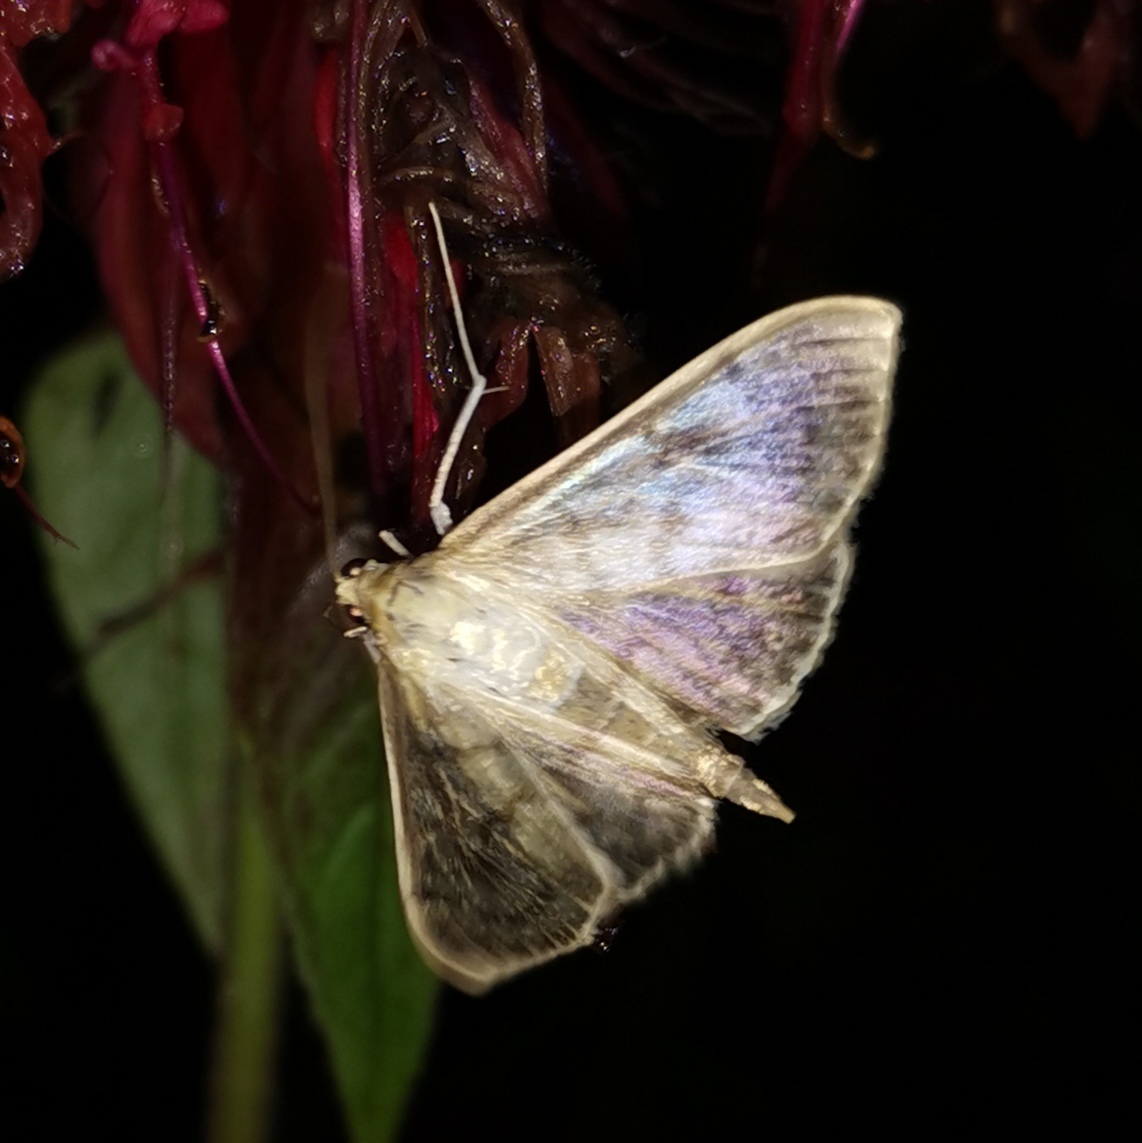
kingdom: Animalia
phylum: Arthropoda
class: Insecta
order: Lepidoptera
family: Crambidae
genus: Patania
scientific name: Patania ruralis
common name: Mother of pearl
